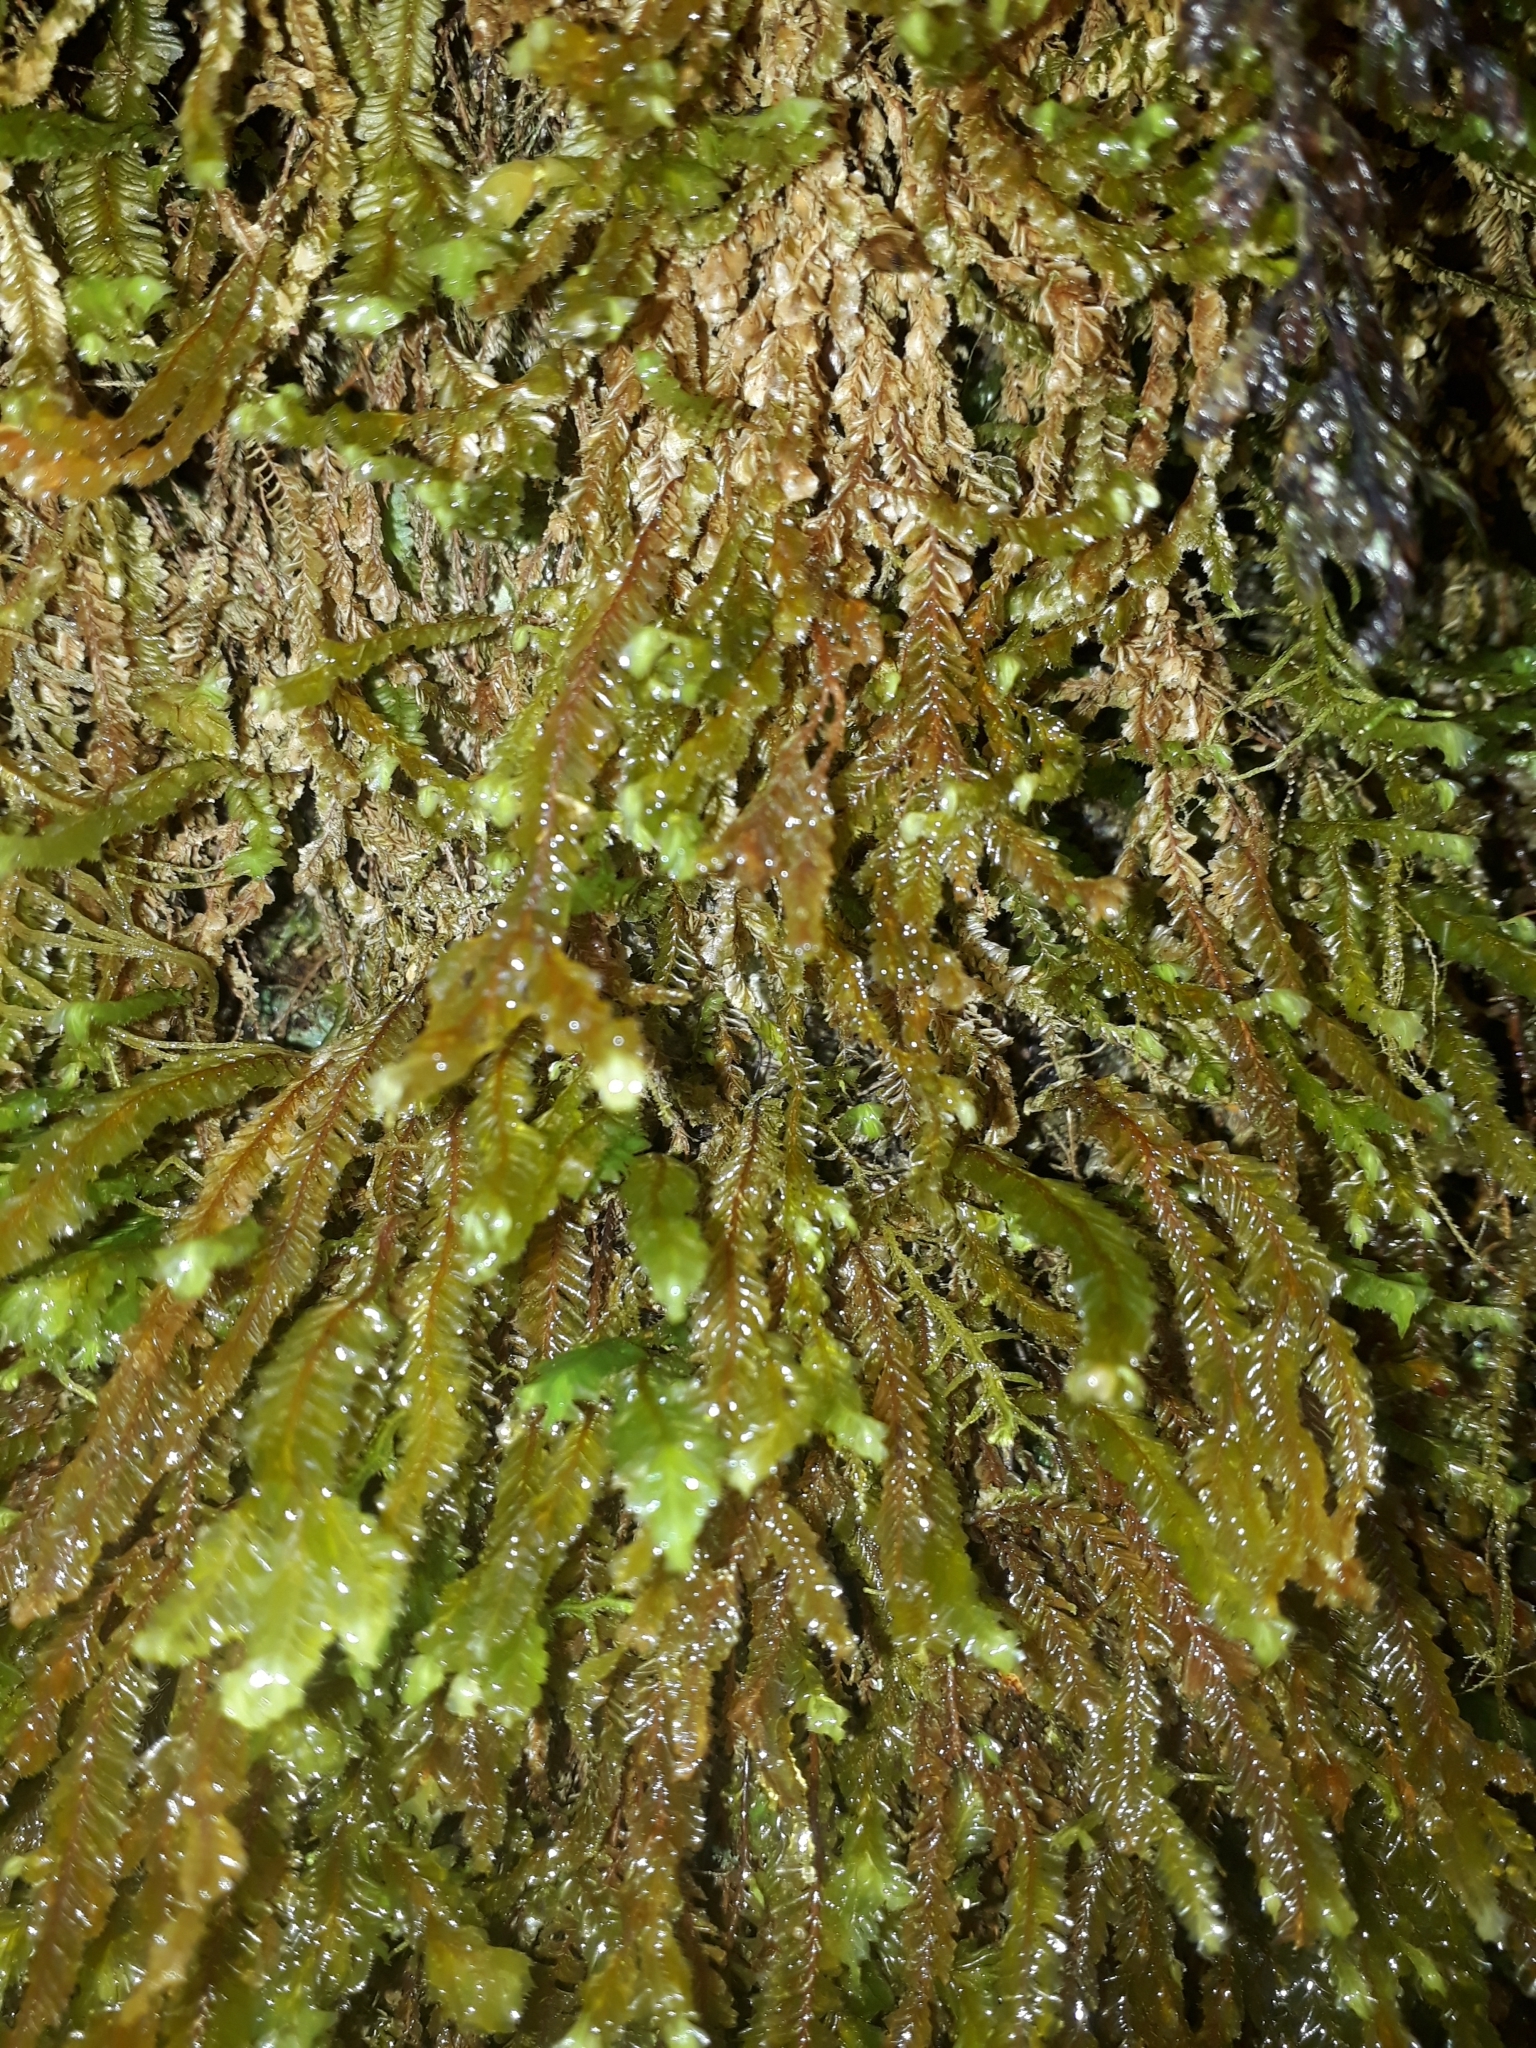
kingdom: Plantae
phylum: Marchantiophyta
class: Jungermanniopsida
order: Jungermanniales
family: Plagiochilaceae
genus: Plagiochila
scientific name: Plagiochila fasciculata
